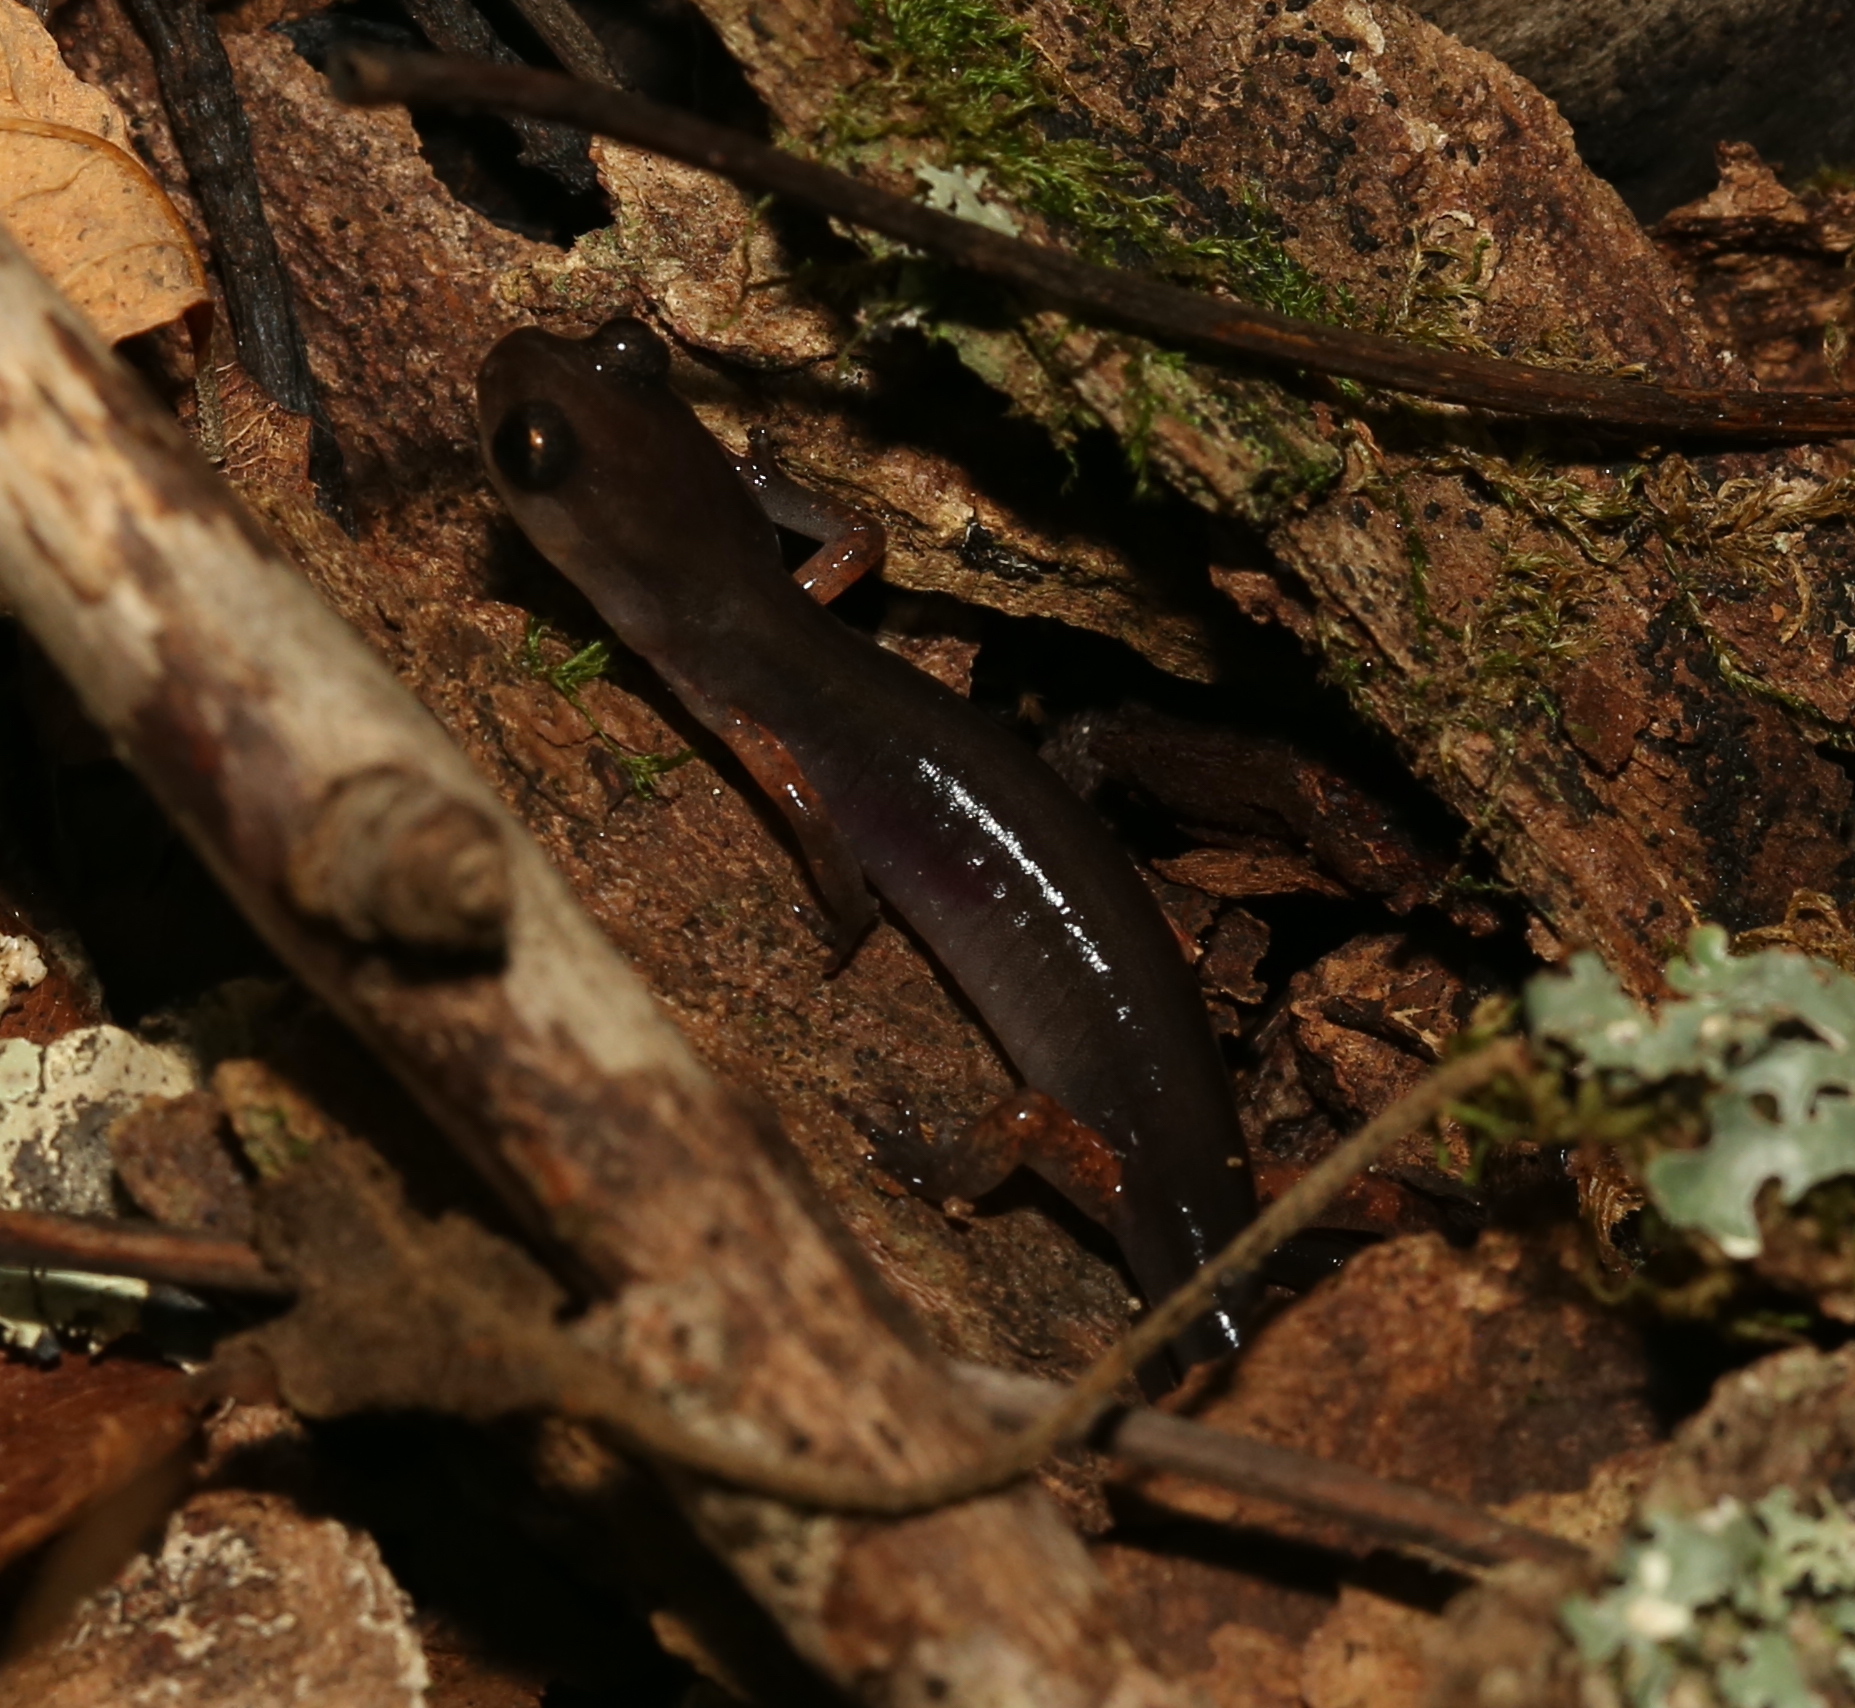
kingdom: Animalia
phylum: Chordata
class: Amphibia
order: Caudata
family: Plethodontidae
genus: Plethodon
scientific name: Plethodon shermani
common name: Red-legged salamander
